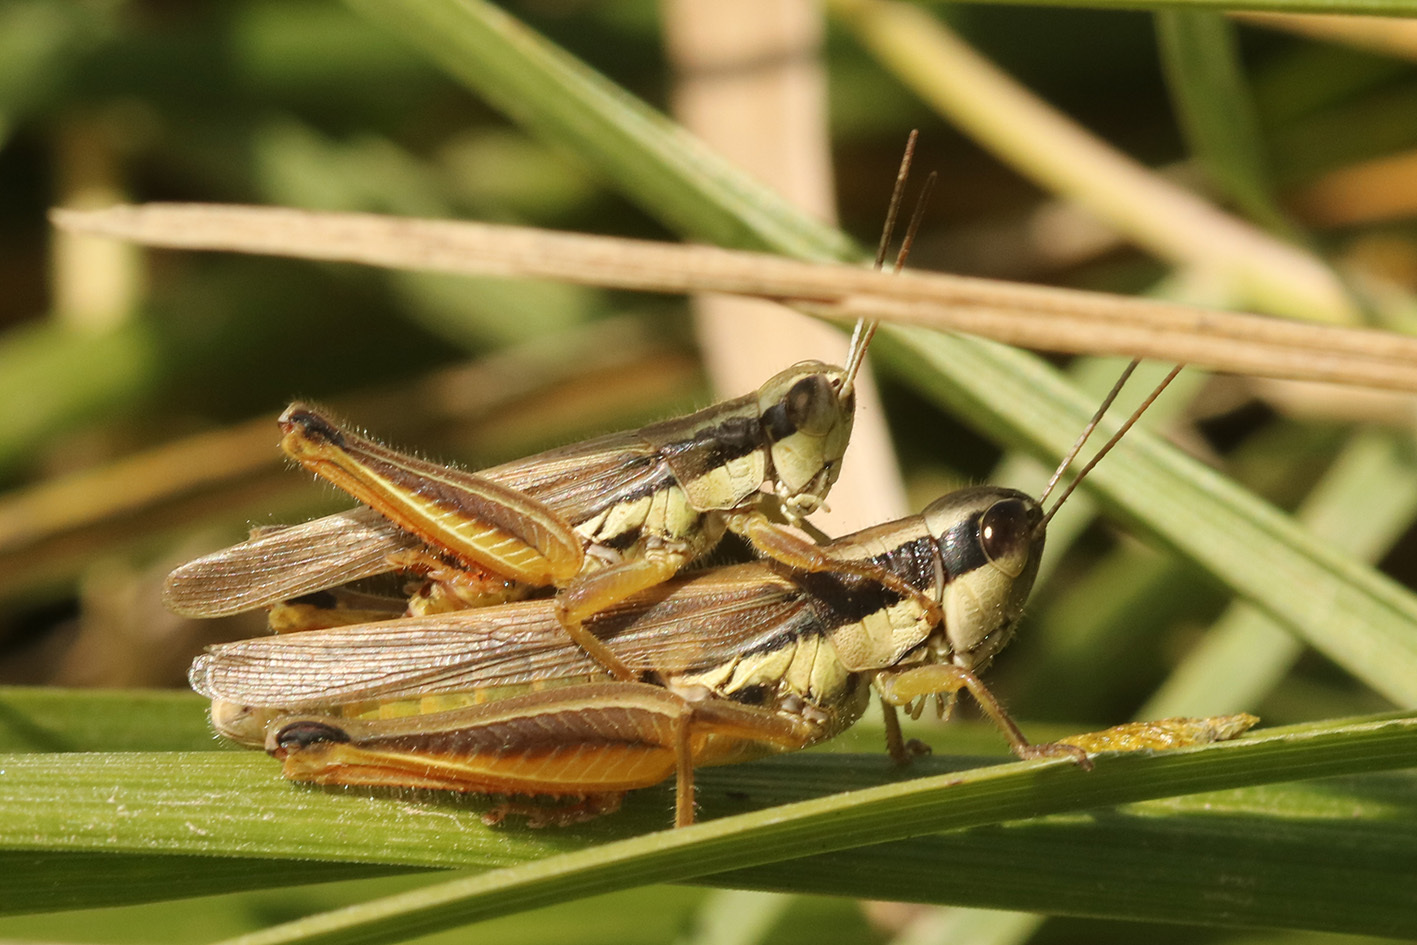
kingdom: Animalia
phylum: Arthropoda
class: Insecta
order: Orthoptera
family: Acrididae
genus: Scotussa
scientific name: Scotussa lemniscata
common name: Slender orange-legged grasshopper
